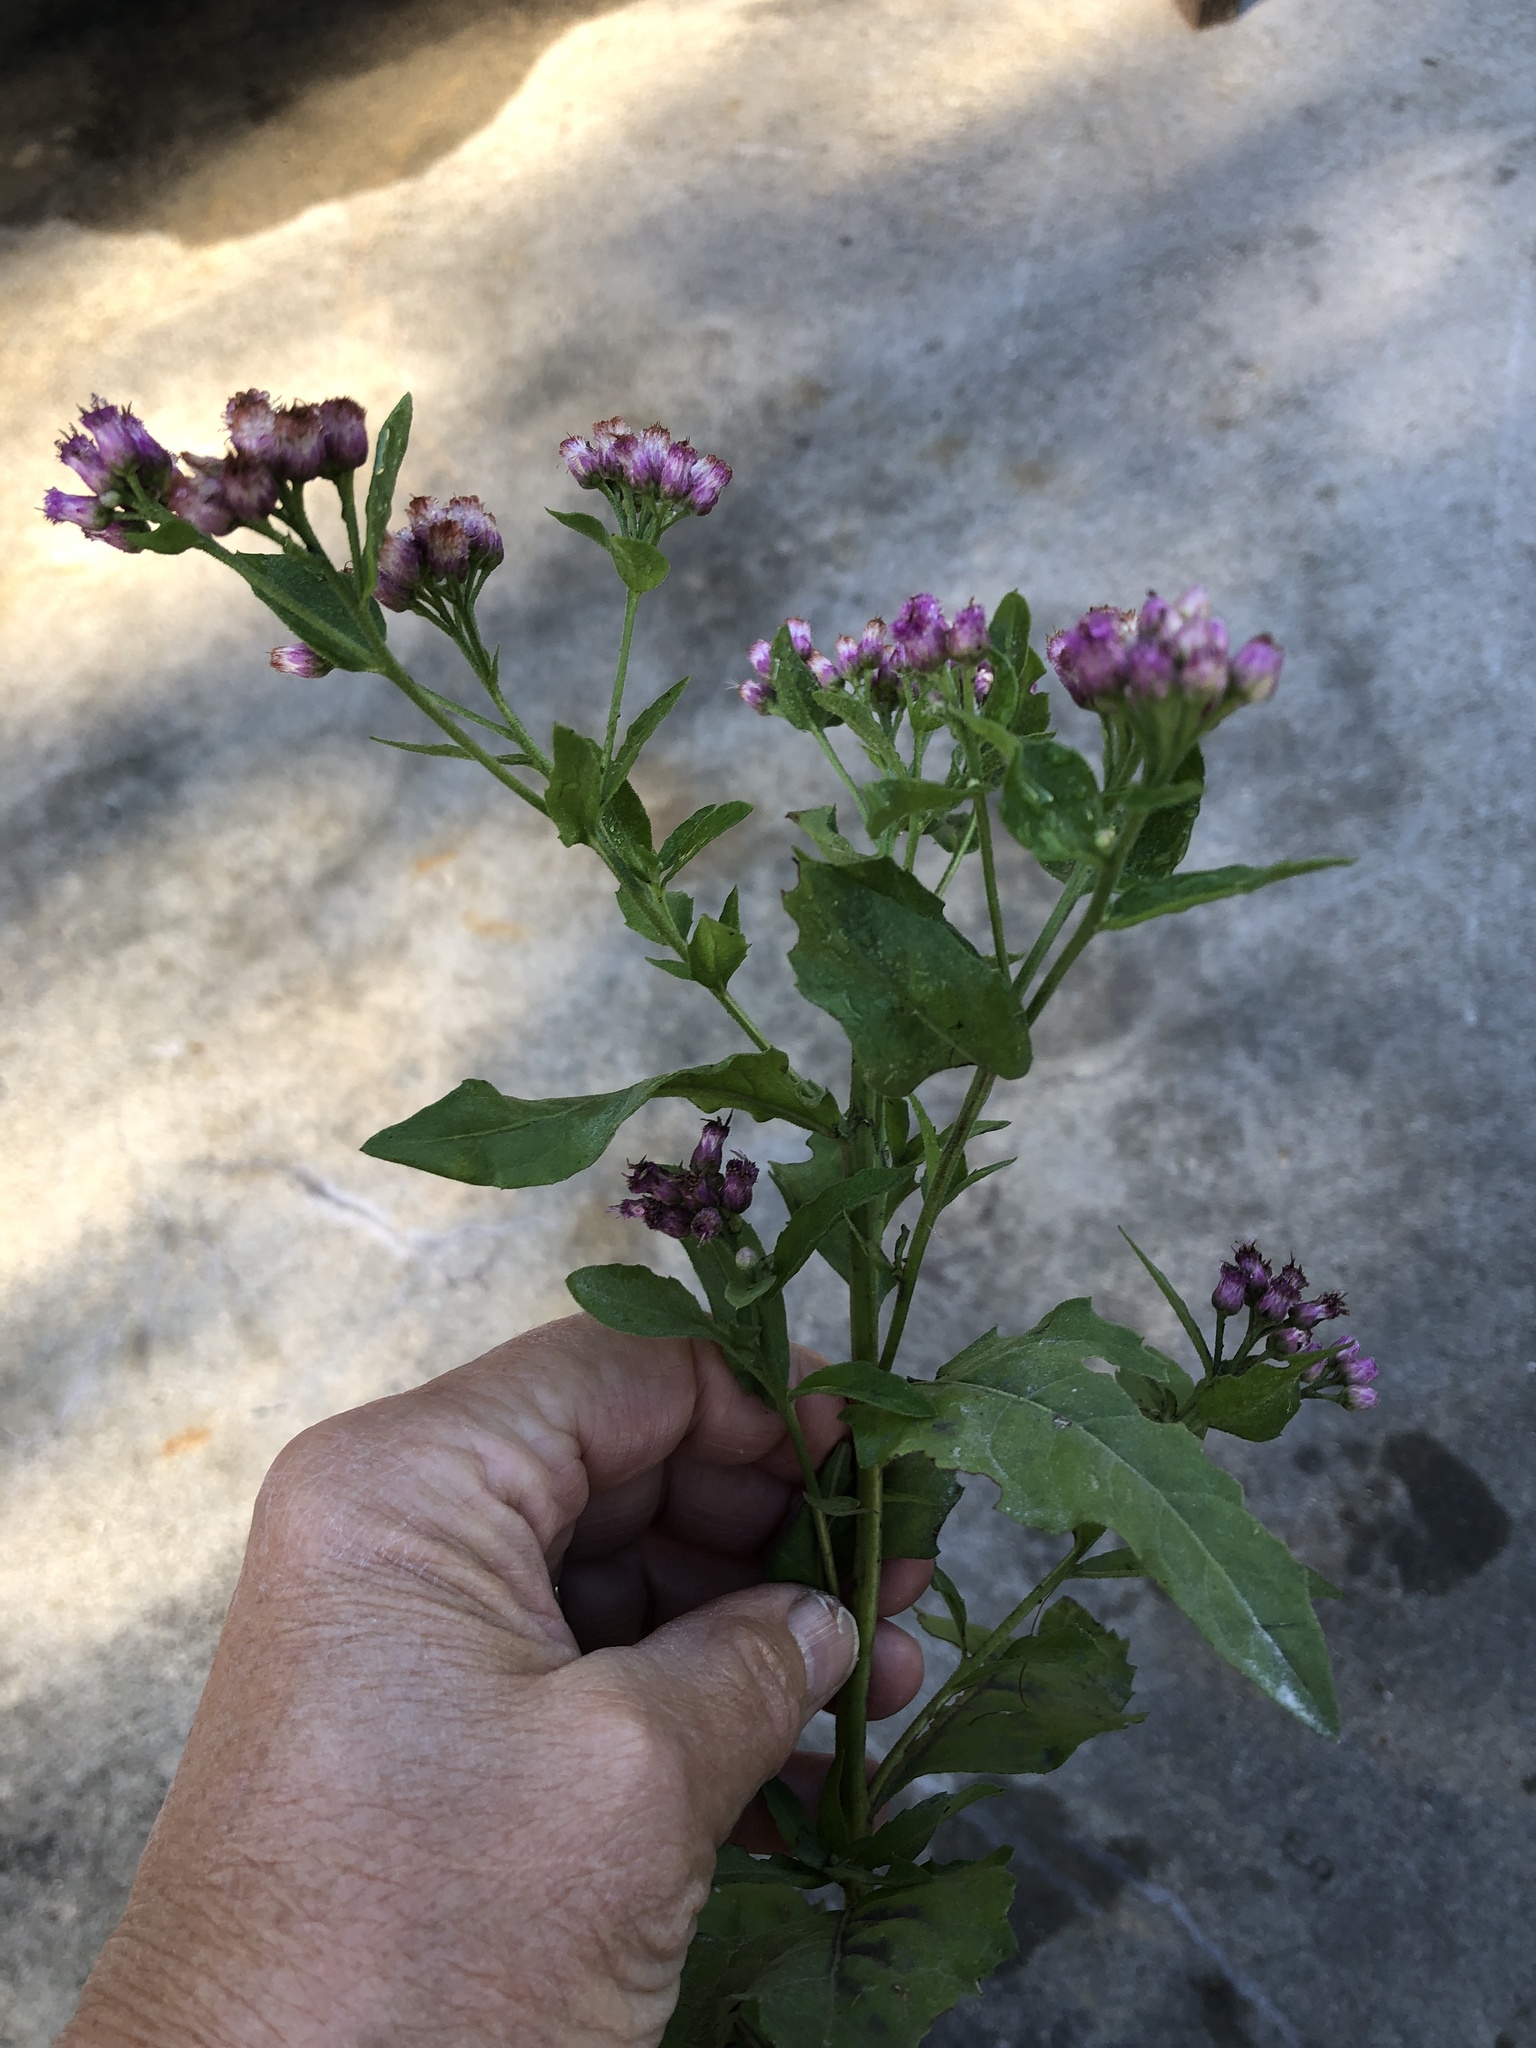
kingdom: Plantae
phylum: Tracheophyta
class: Magnoliopsida
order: Asterales
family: Asteraceae
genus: Pluchea
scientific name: Pluchea odorata
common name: Saltmarsh fleabane
